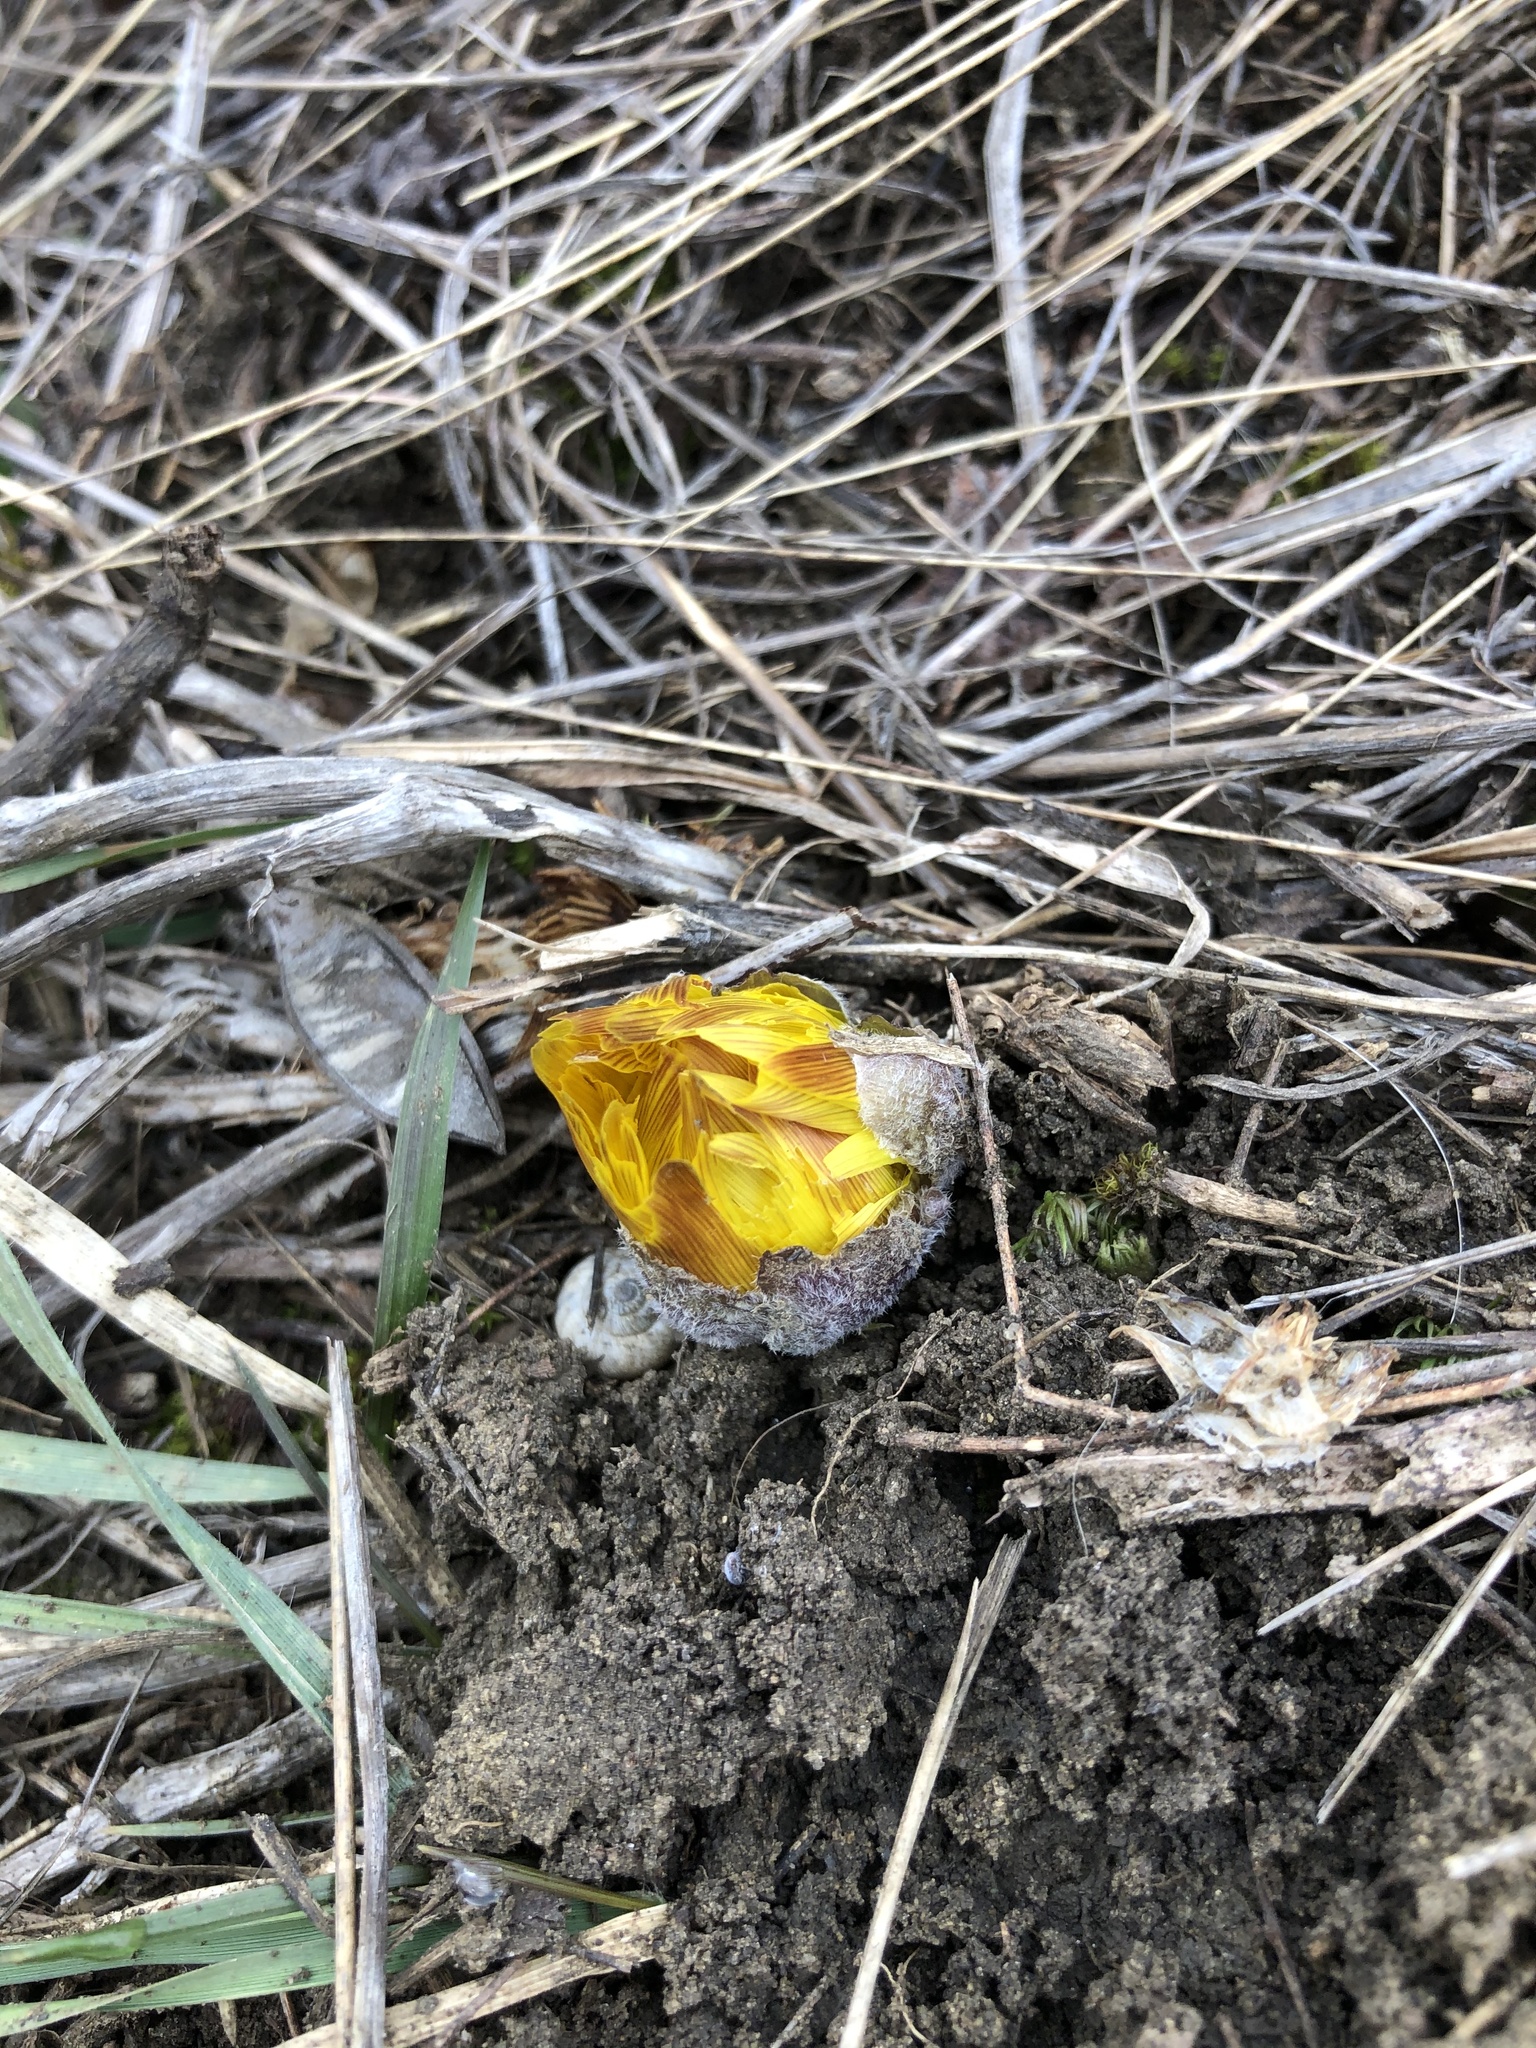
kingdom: Plantae
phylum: Tracheophyta
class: Magnoliopsida
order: Ranunculales
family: Ranunculaceae
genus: Adonis
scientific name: Adonis vernalis
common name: Yellow pheasants-eye
